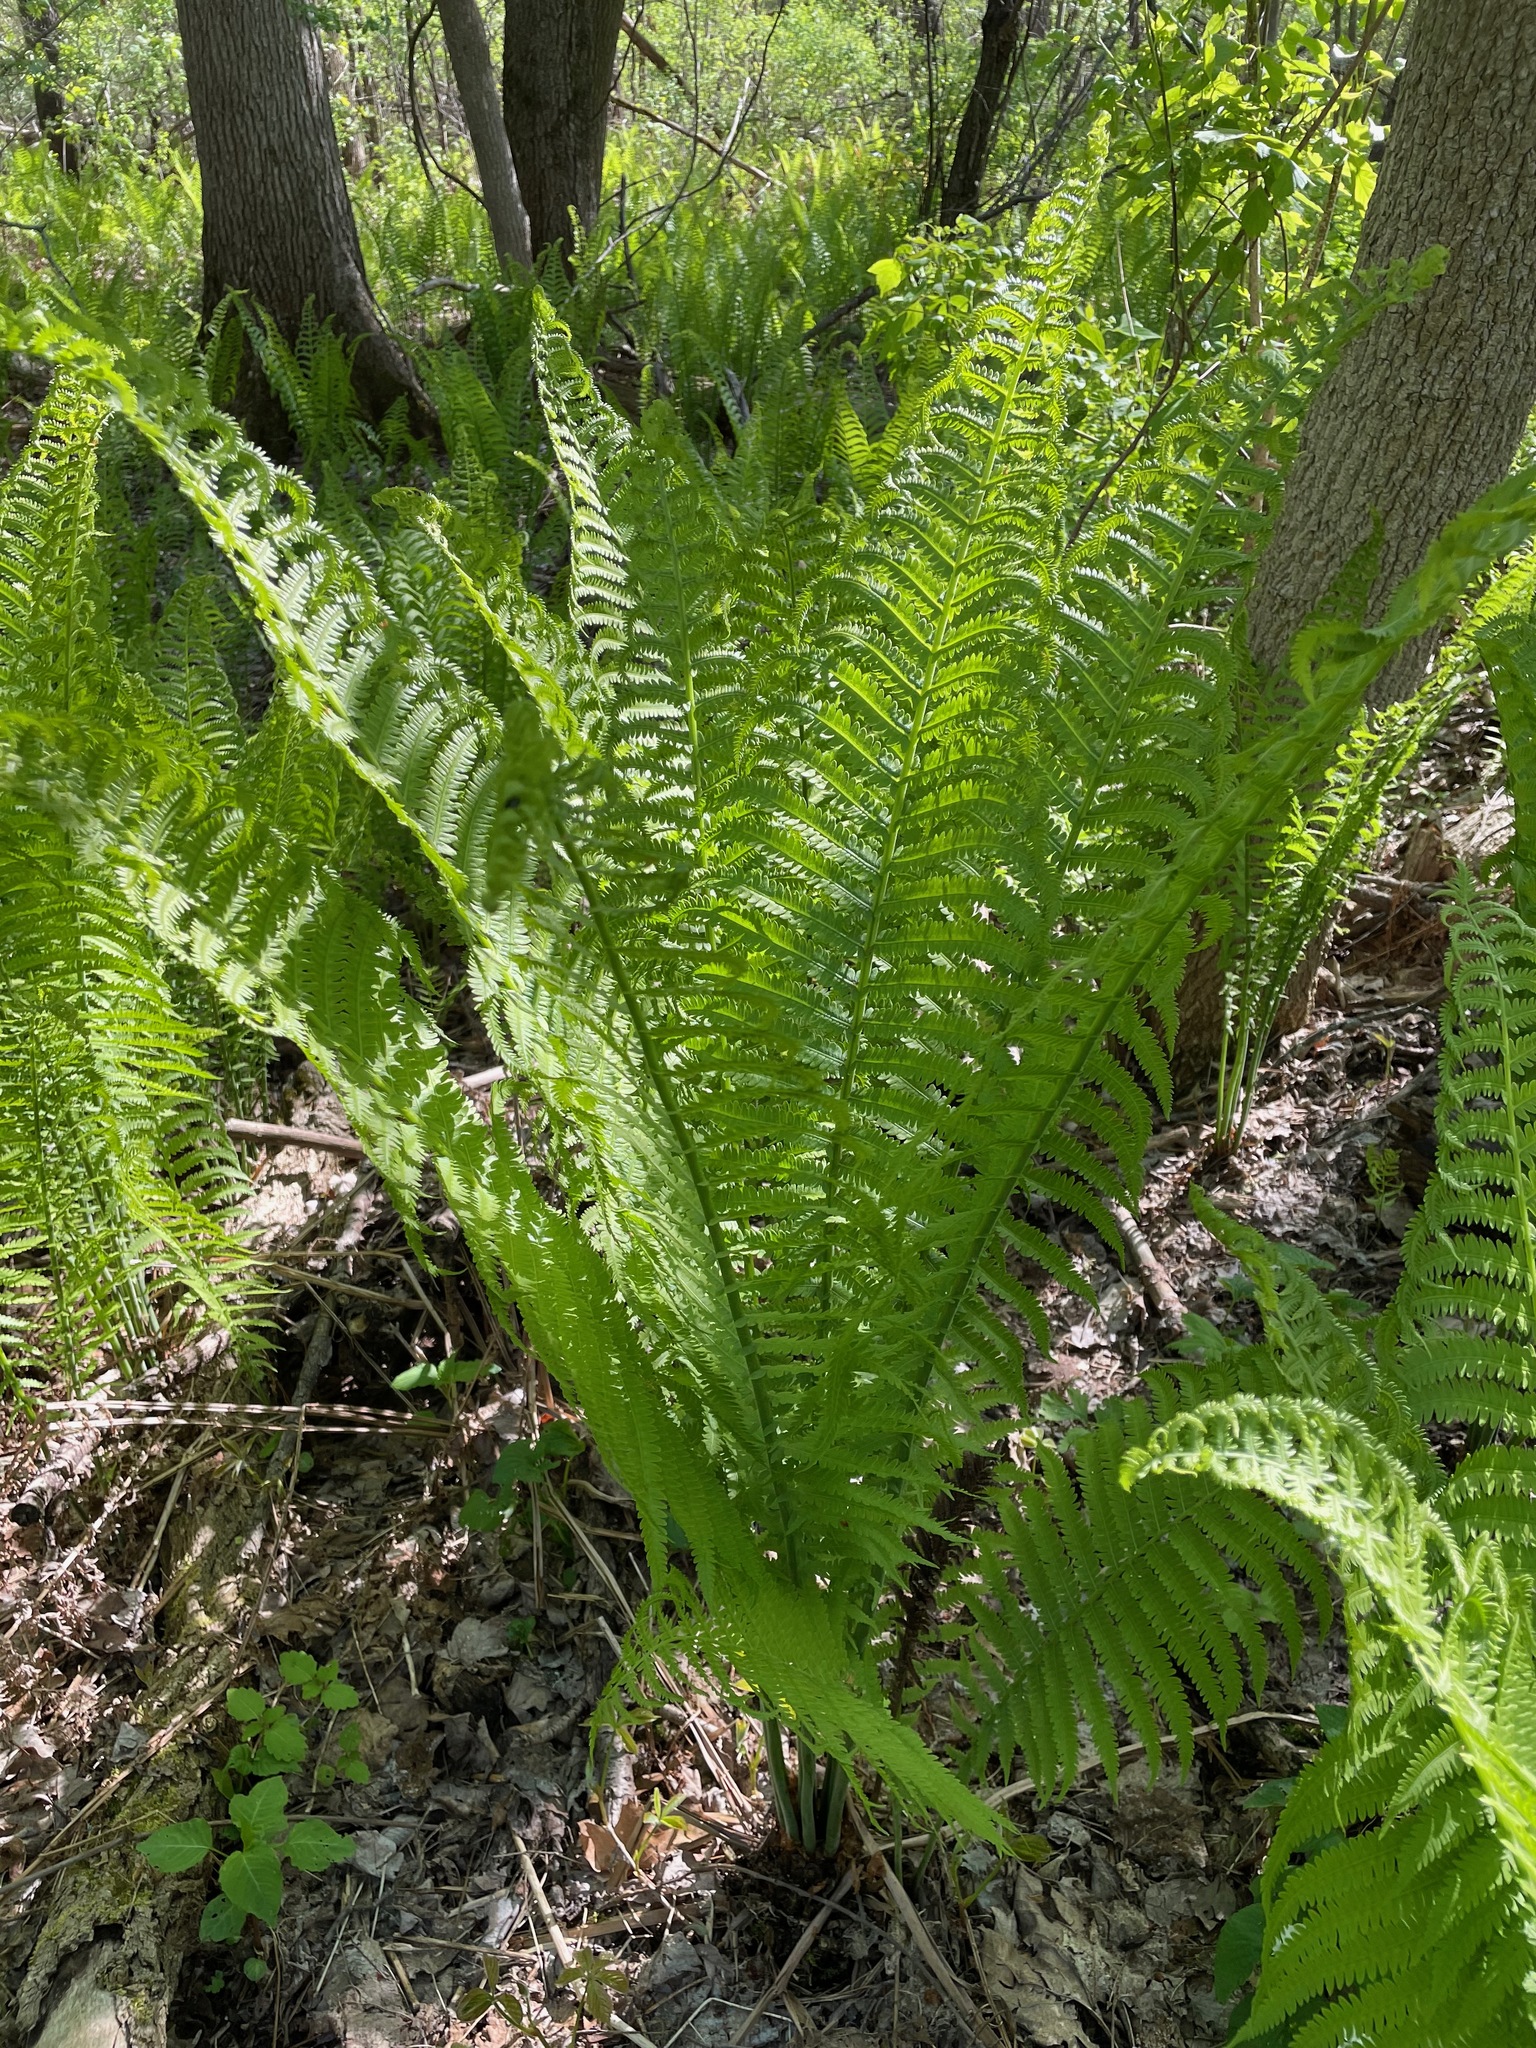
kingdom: Plantae
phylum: Tracheophyta
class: Polypodiopsida
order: Polypodiales
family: Onocleaceae
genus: Matteuccia
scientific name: Matteuccia struthiopteris
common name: Ostrich fern
